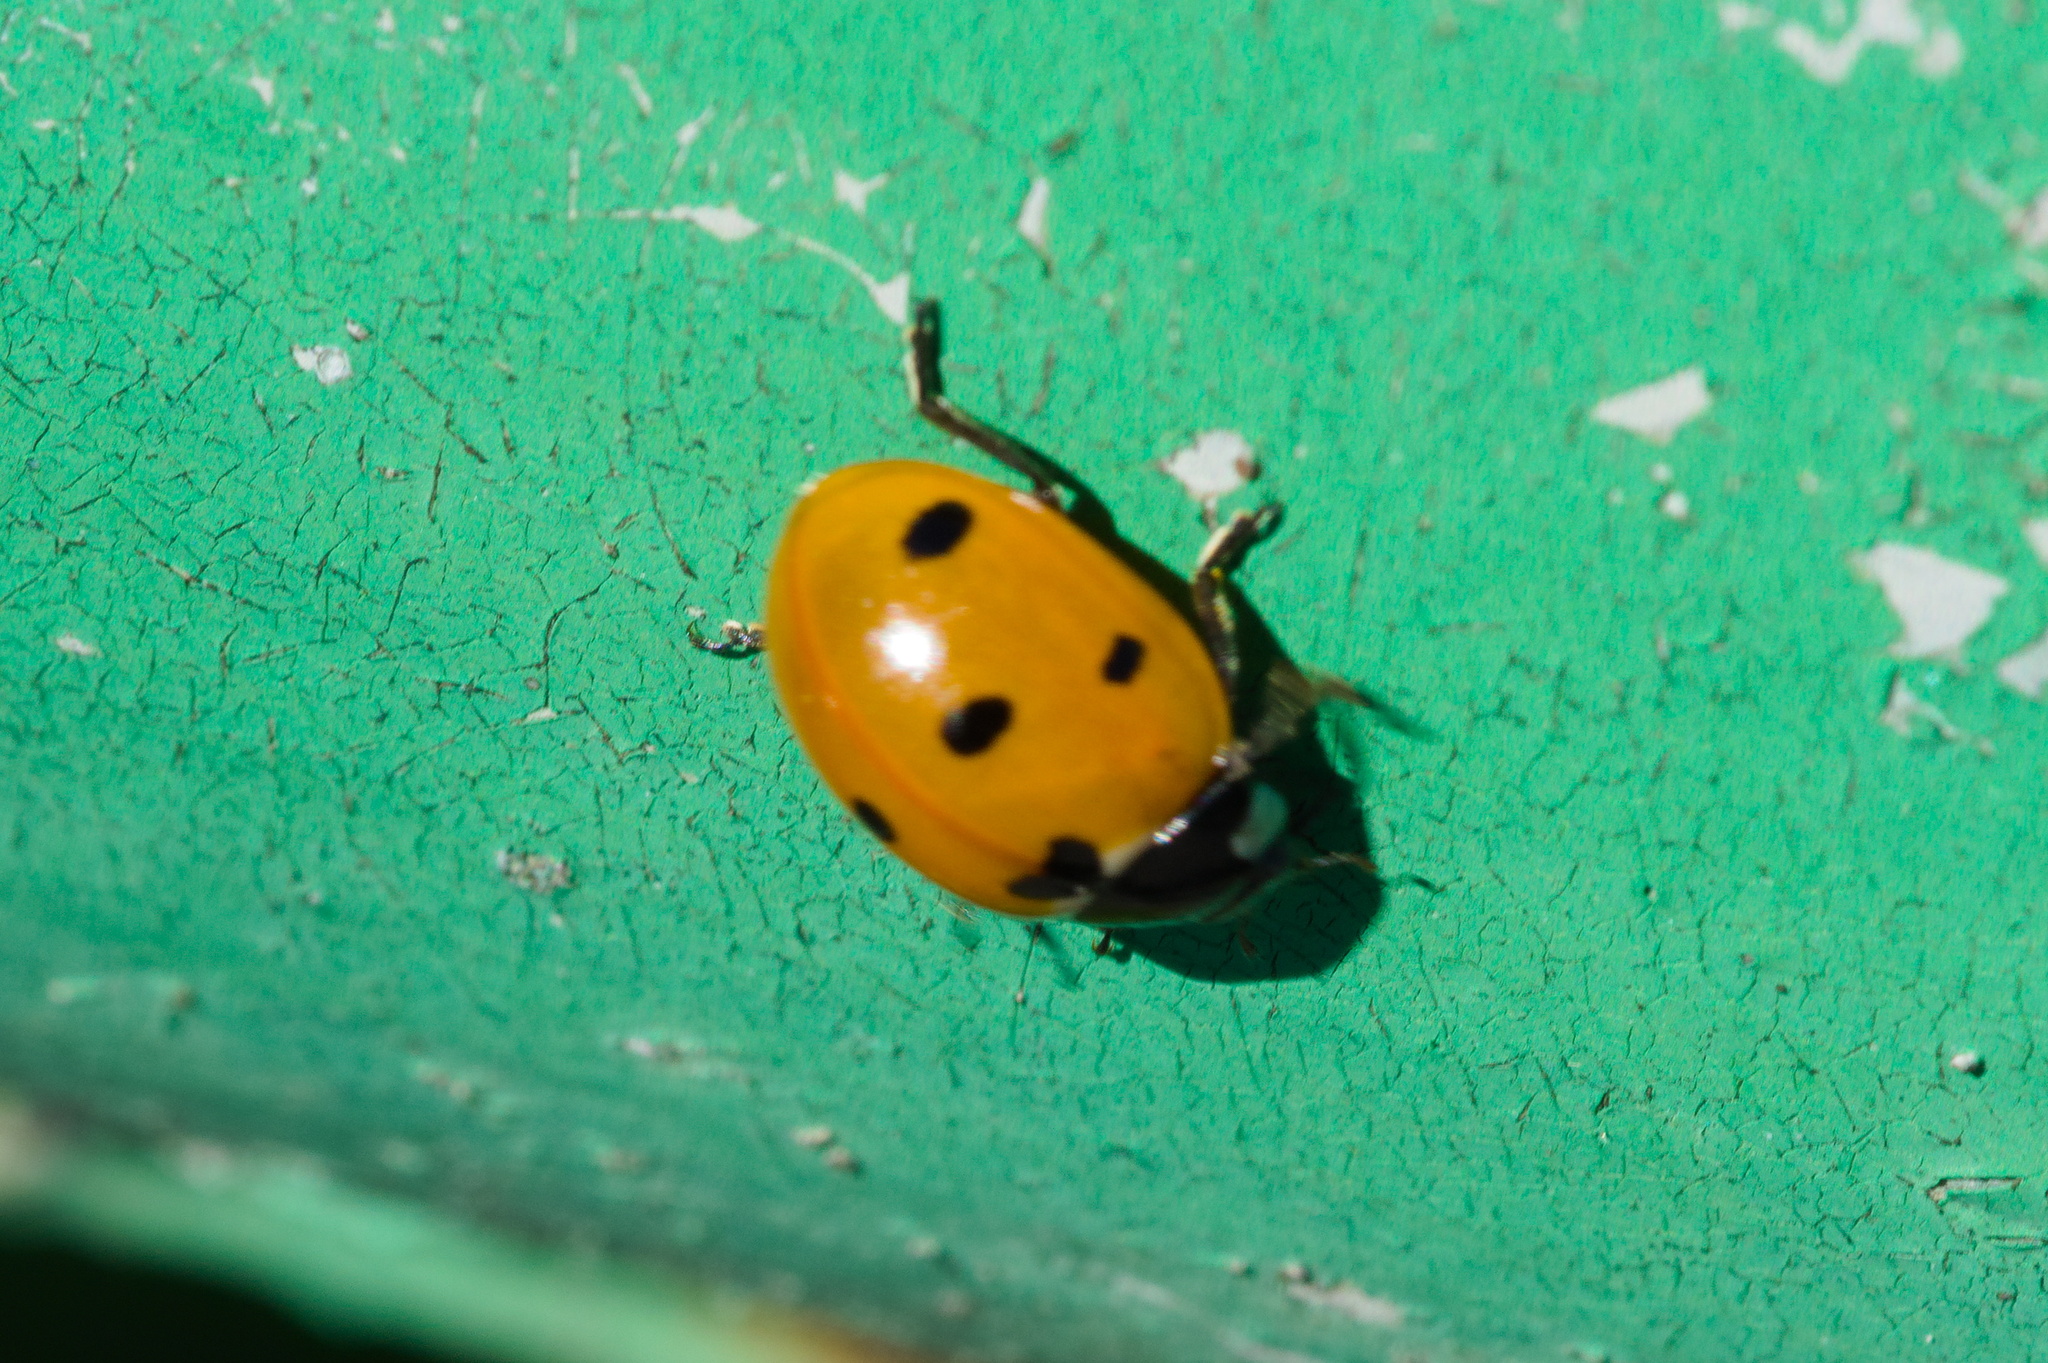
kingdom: Animalia
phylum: Arthropoda
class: Insecta
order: Coleoptera
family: Coccinellidae
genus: Coccinella
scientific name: Coccinella septempunctata
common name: Sevenspotted lady beetle
